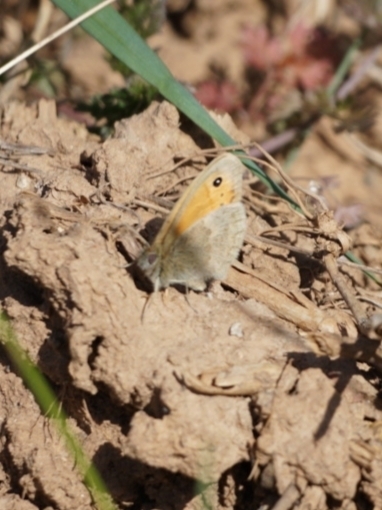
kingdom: Animalia
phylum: Arthropoda
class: Insecta
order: Lepidoptera
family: Nymphalidae
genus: Coenonympha
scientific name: Coenonympha pamphilus
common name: Small heath
